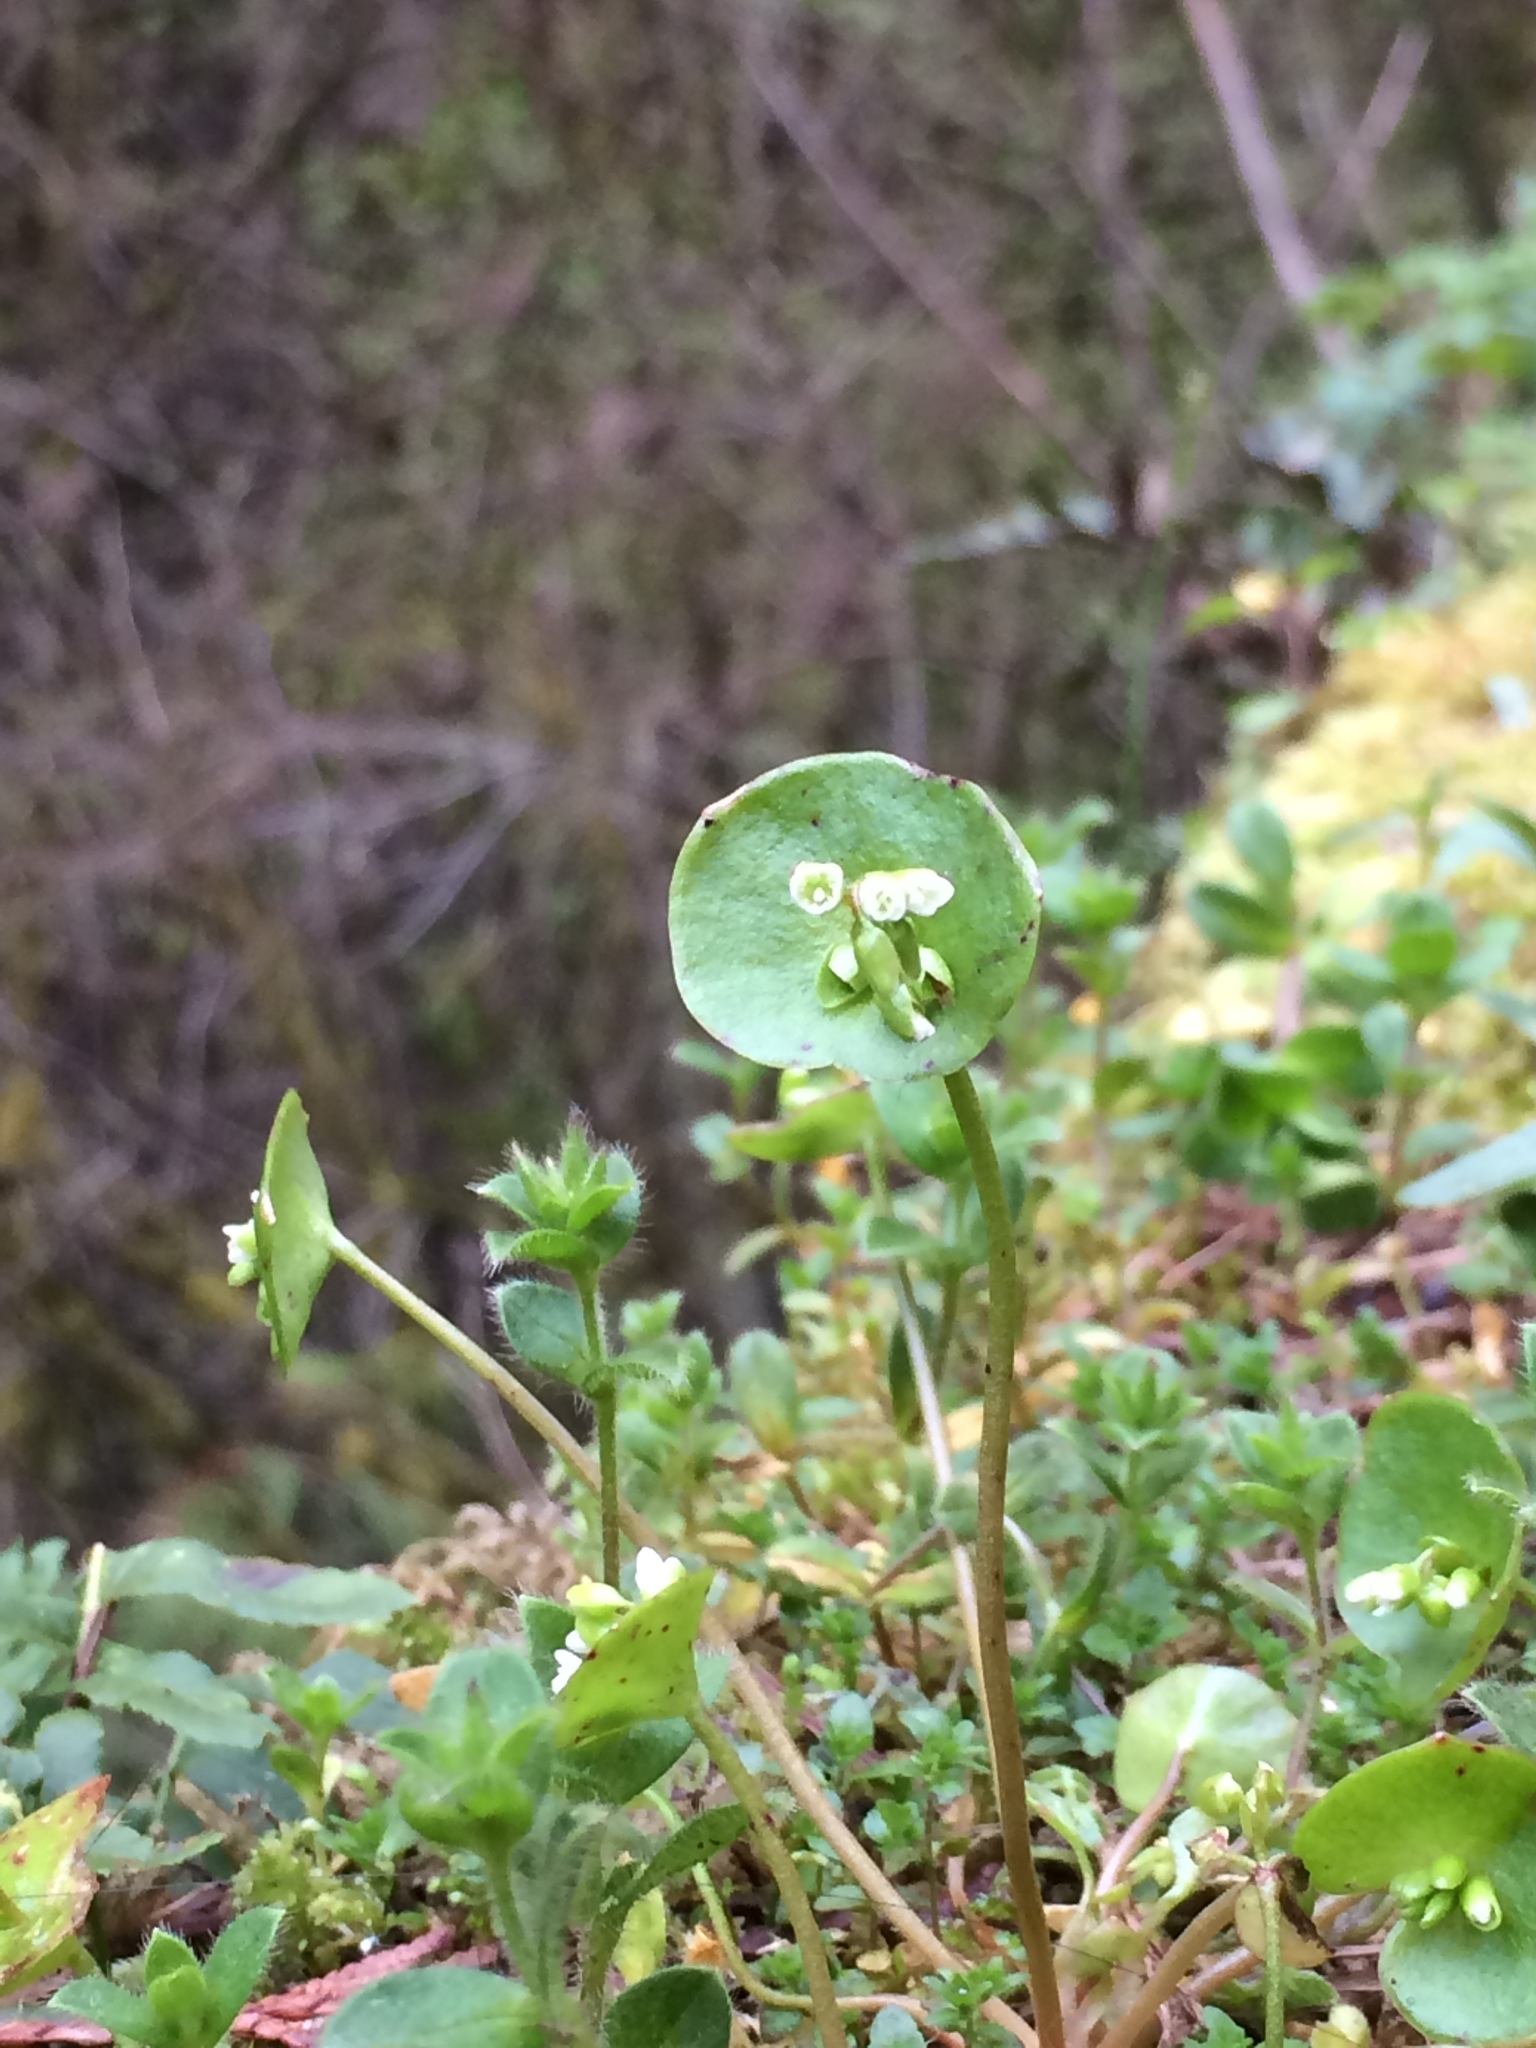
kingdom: Plantae
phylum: Tracheophyta
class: Magnoliopsida
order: Caryophyllales
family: Montiaceae
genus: Claytonia
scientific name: Claytonia perfoliata
